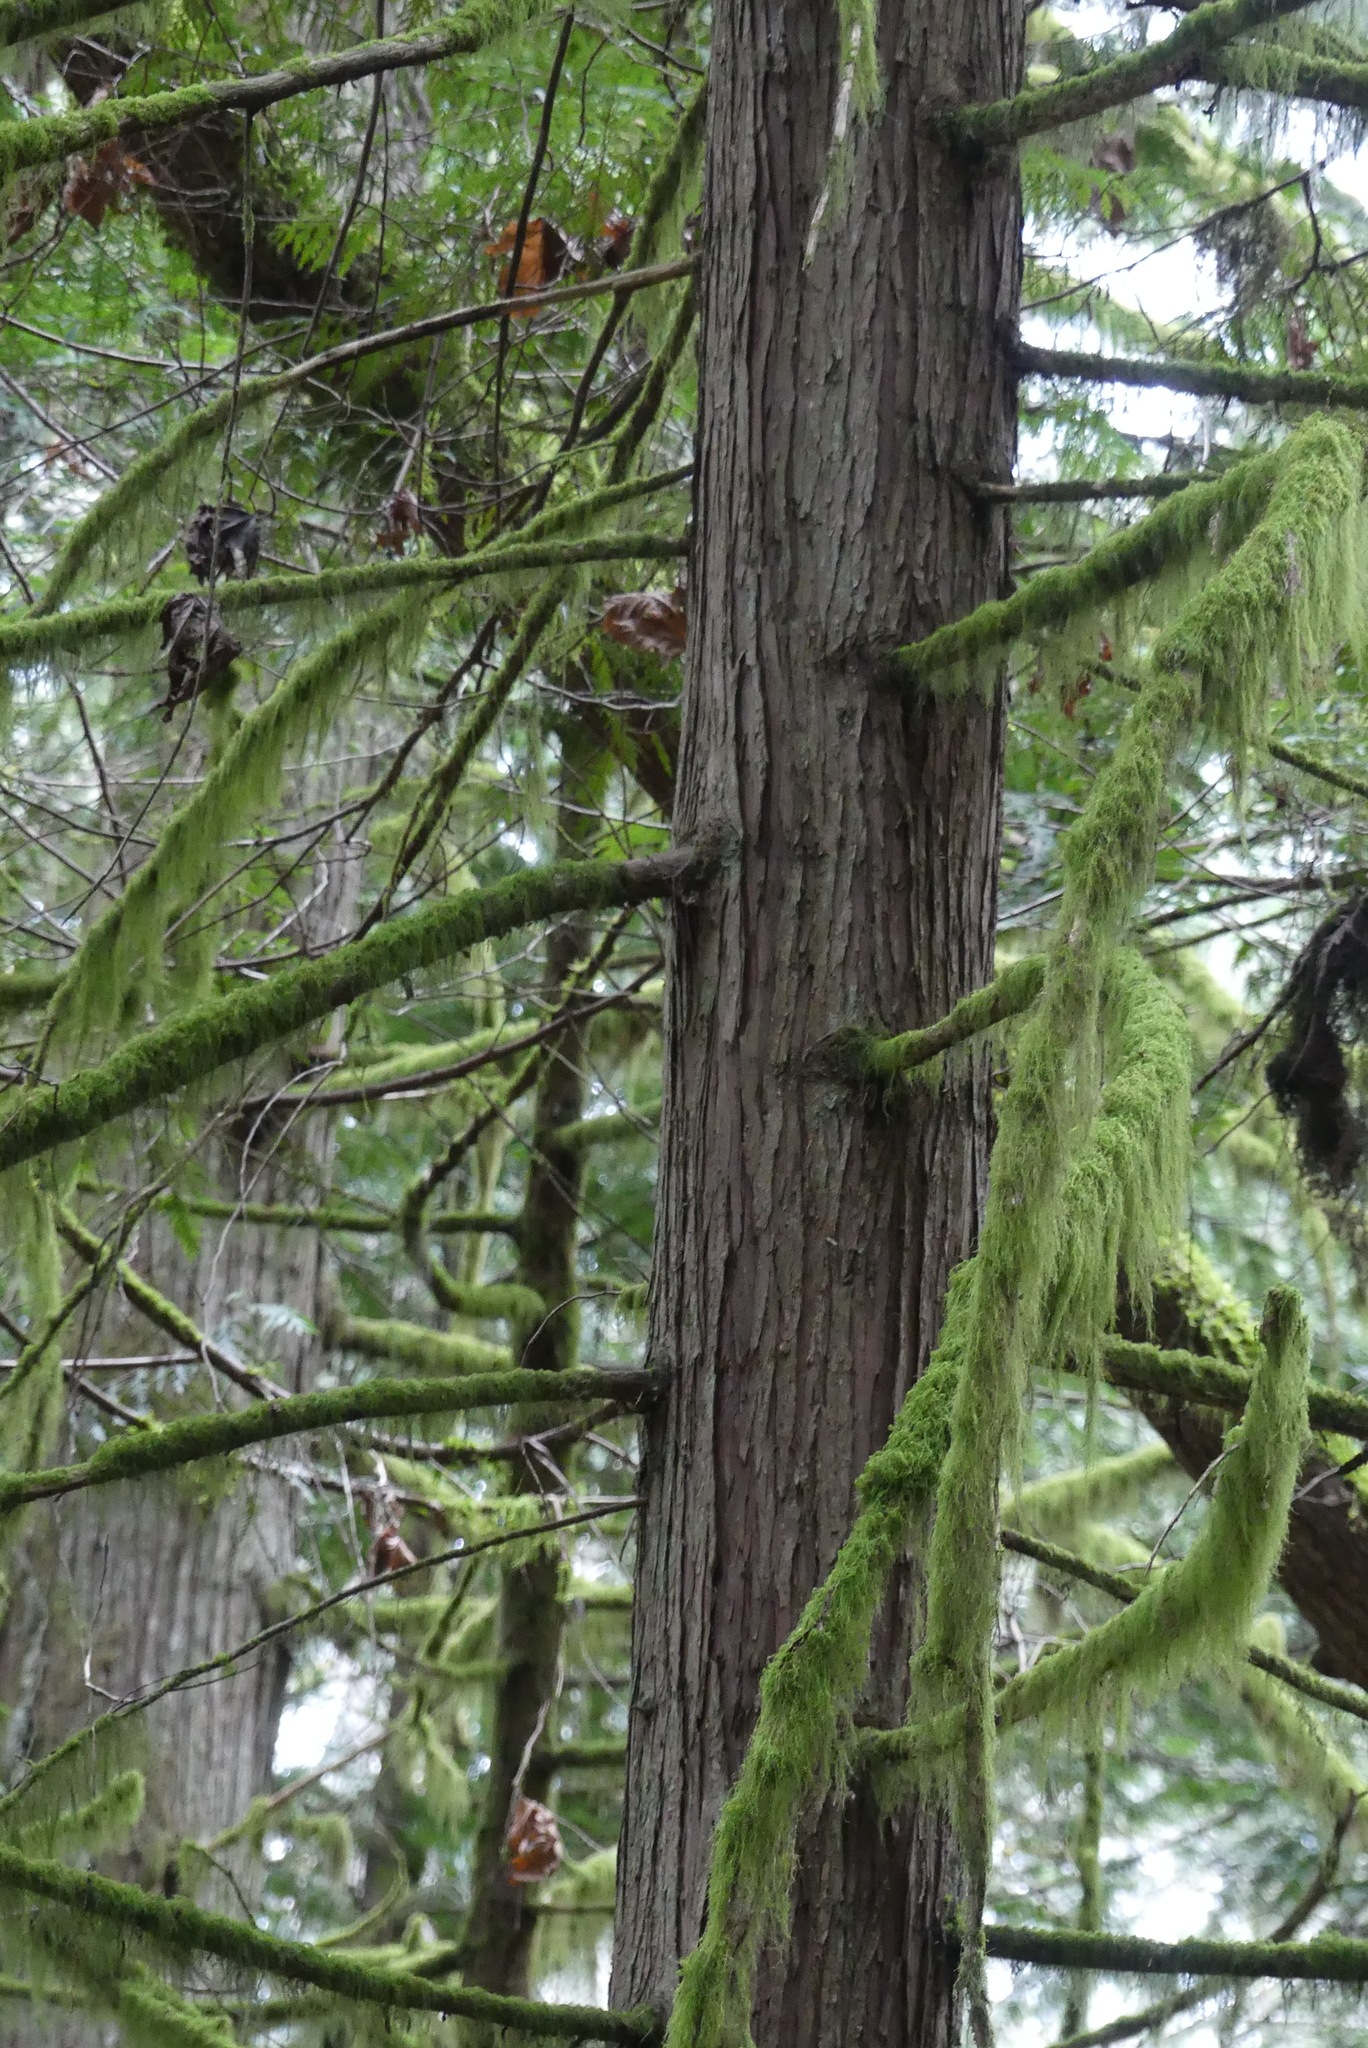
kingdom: Plantae
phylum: Tracheophyta
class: Pinopsida
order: Pinales
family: Cupressaceae
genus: Thuja
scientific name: Thuja plicata
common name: Western red-cedar
